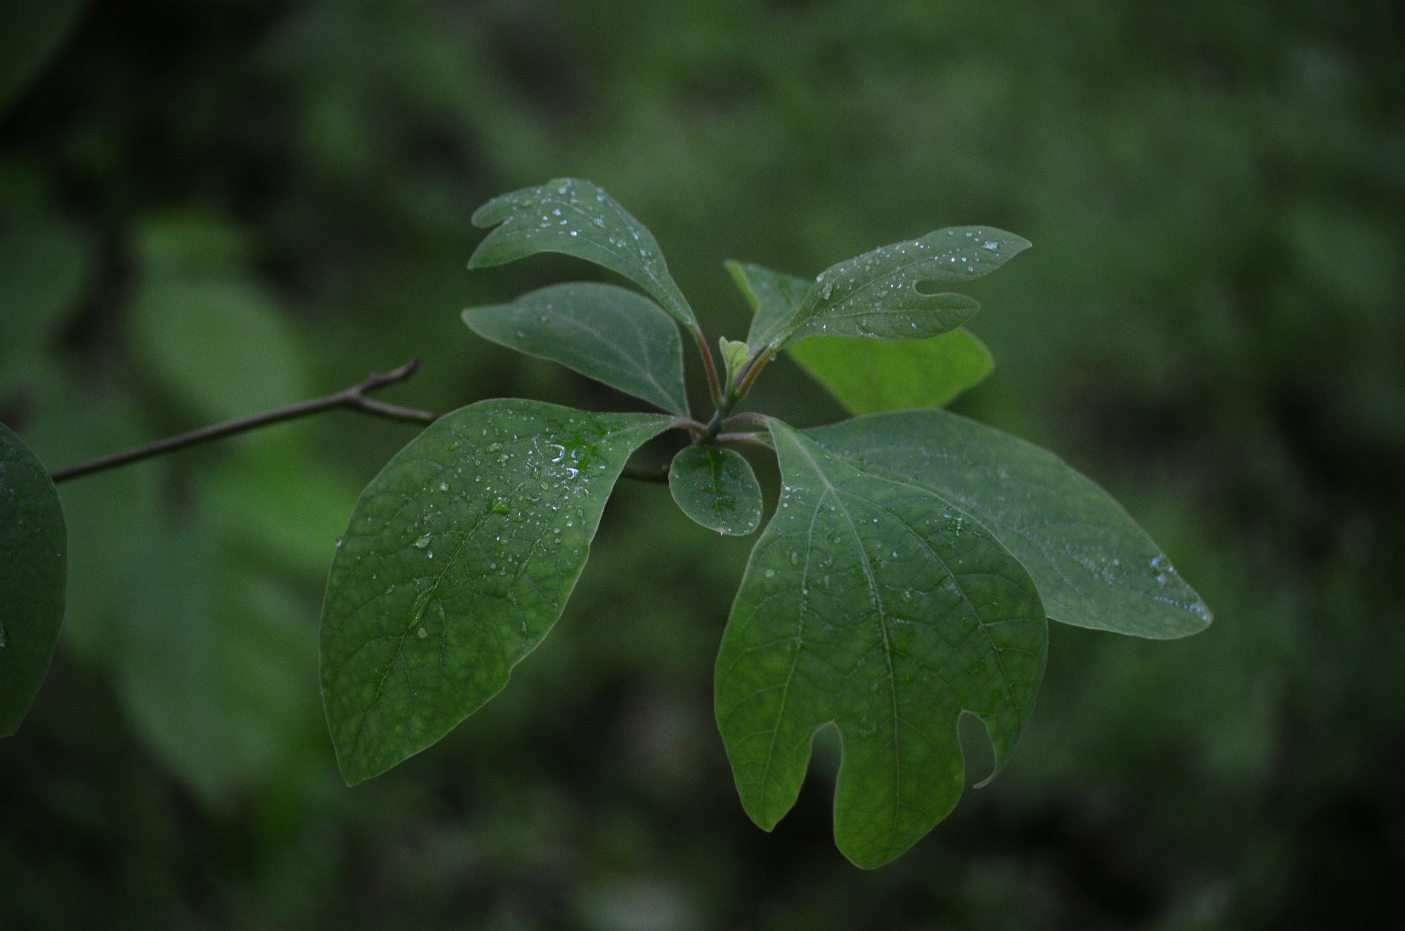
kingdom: Plantae
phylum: Tracheophyta
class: Magnoliopsida
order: Laurales
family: Lauraceae
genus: Sassafras
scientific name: Sassafras albidum
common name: Sassafras
